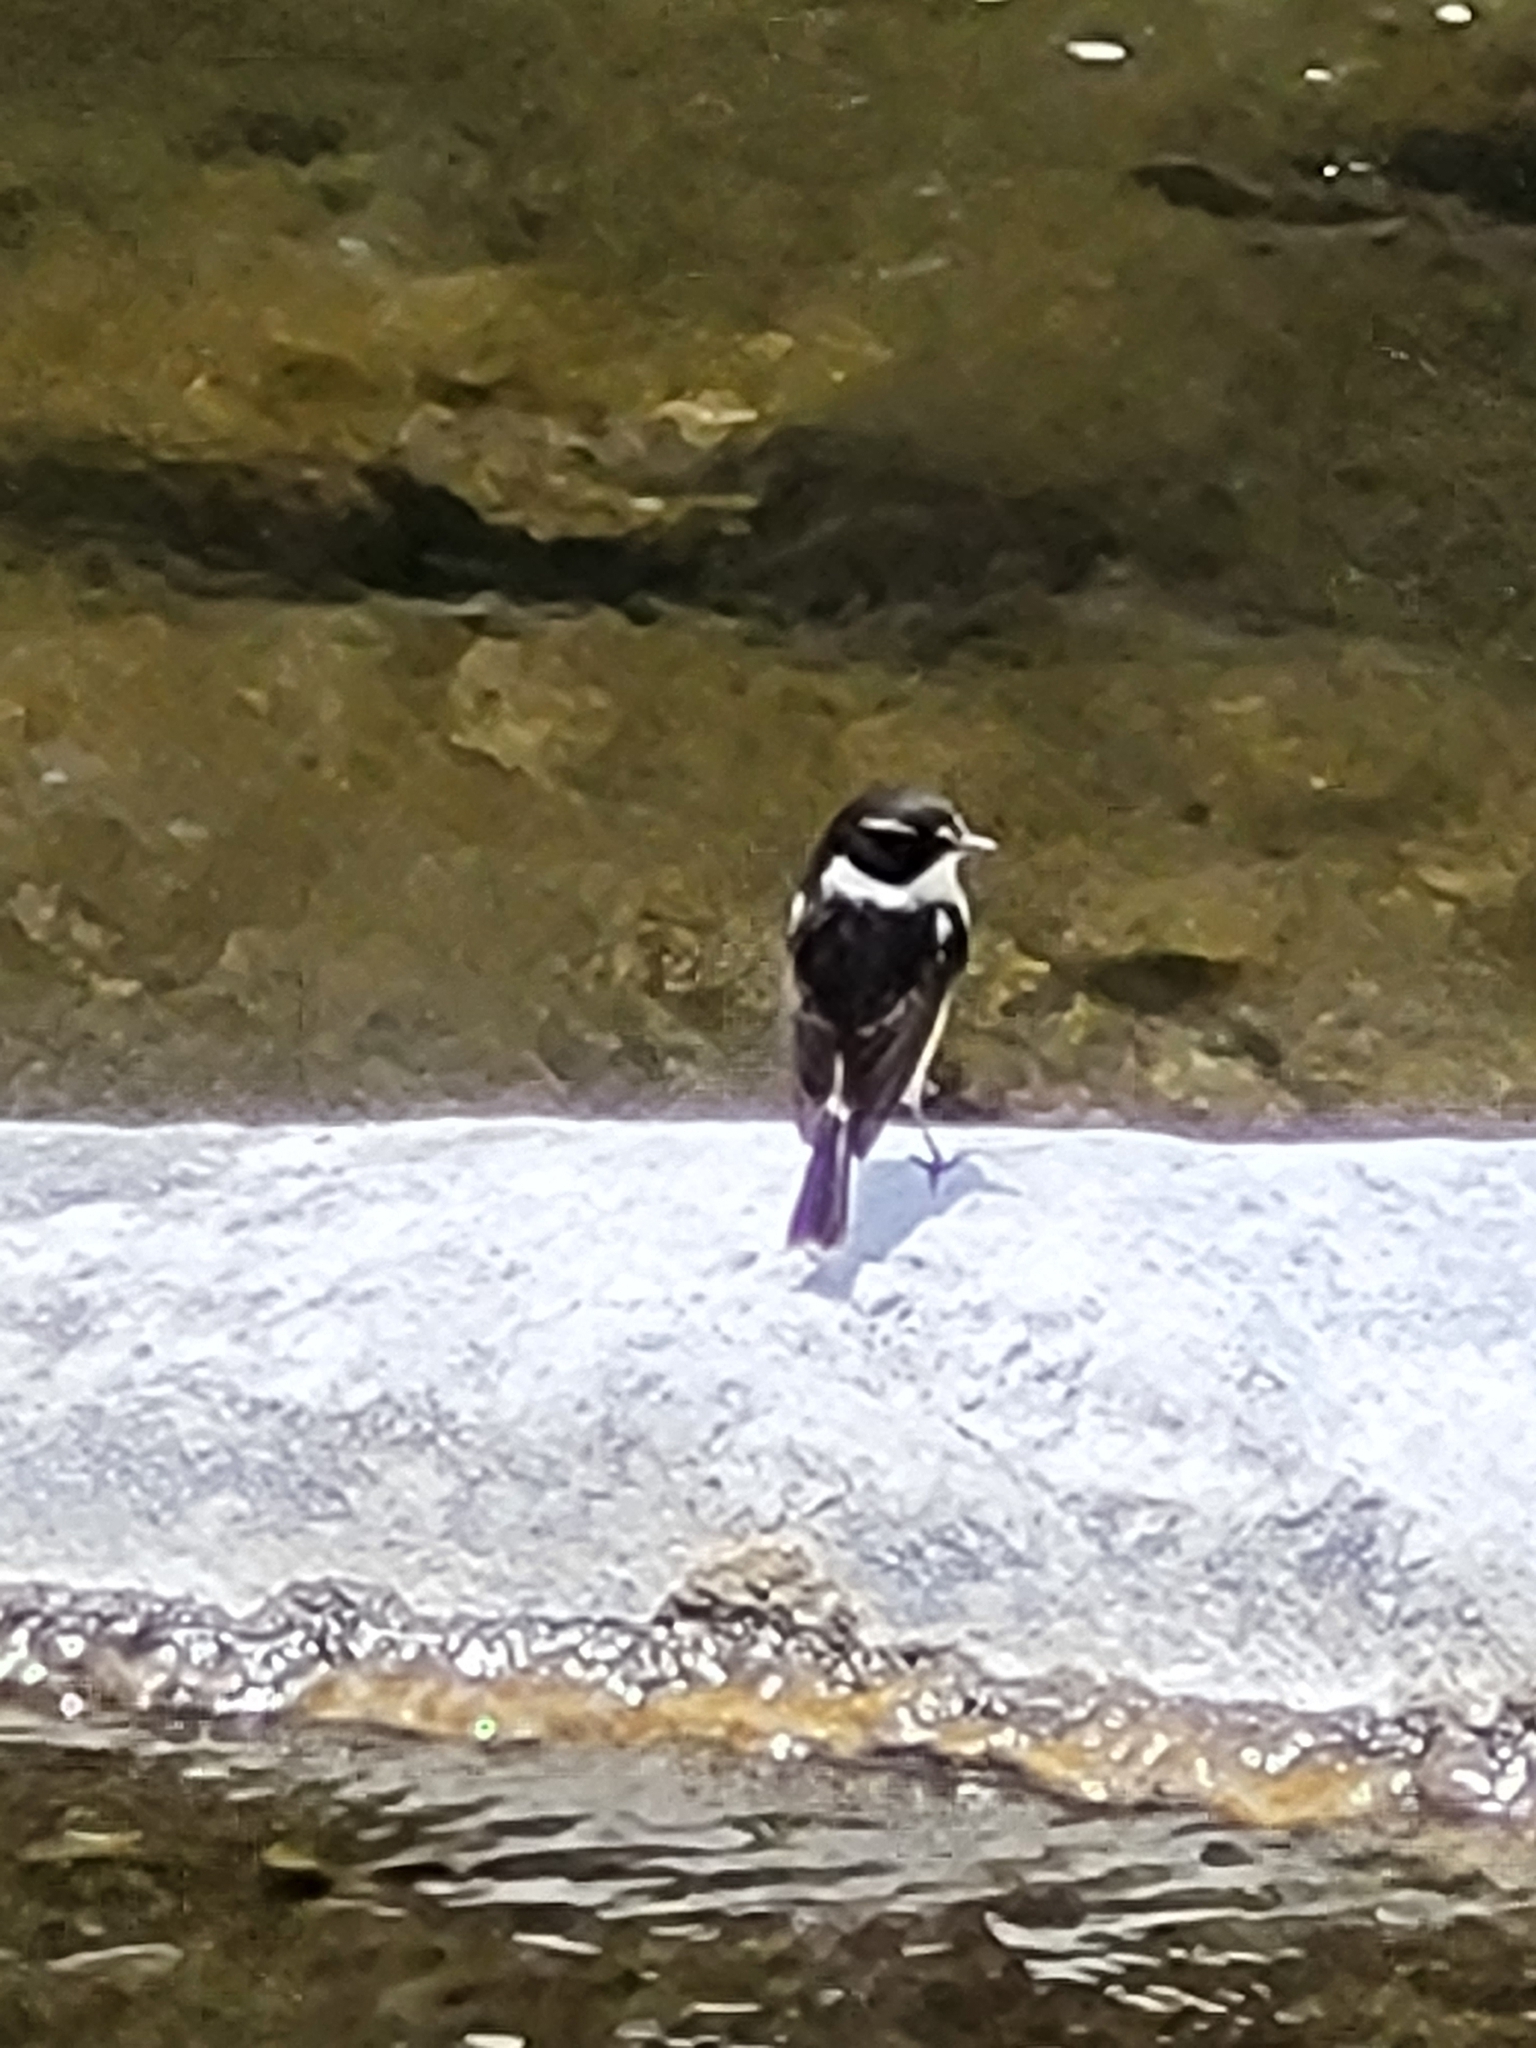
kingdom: Animalia
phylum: Chordata
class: Aves
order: Passeriformes
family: Muscicapidae
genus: Saxicola
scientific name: Saxicola tectes
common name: Reunion stonechat
